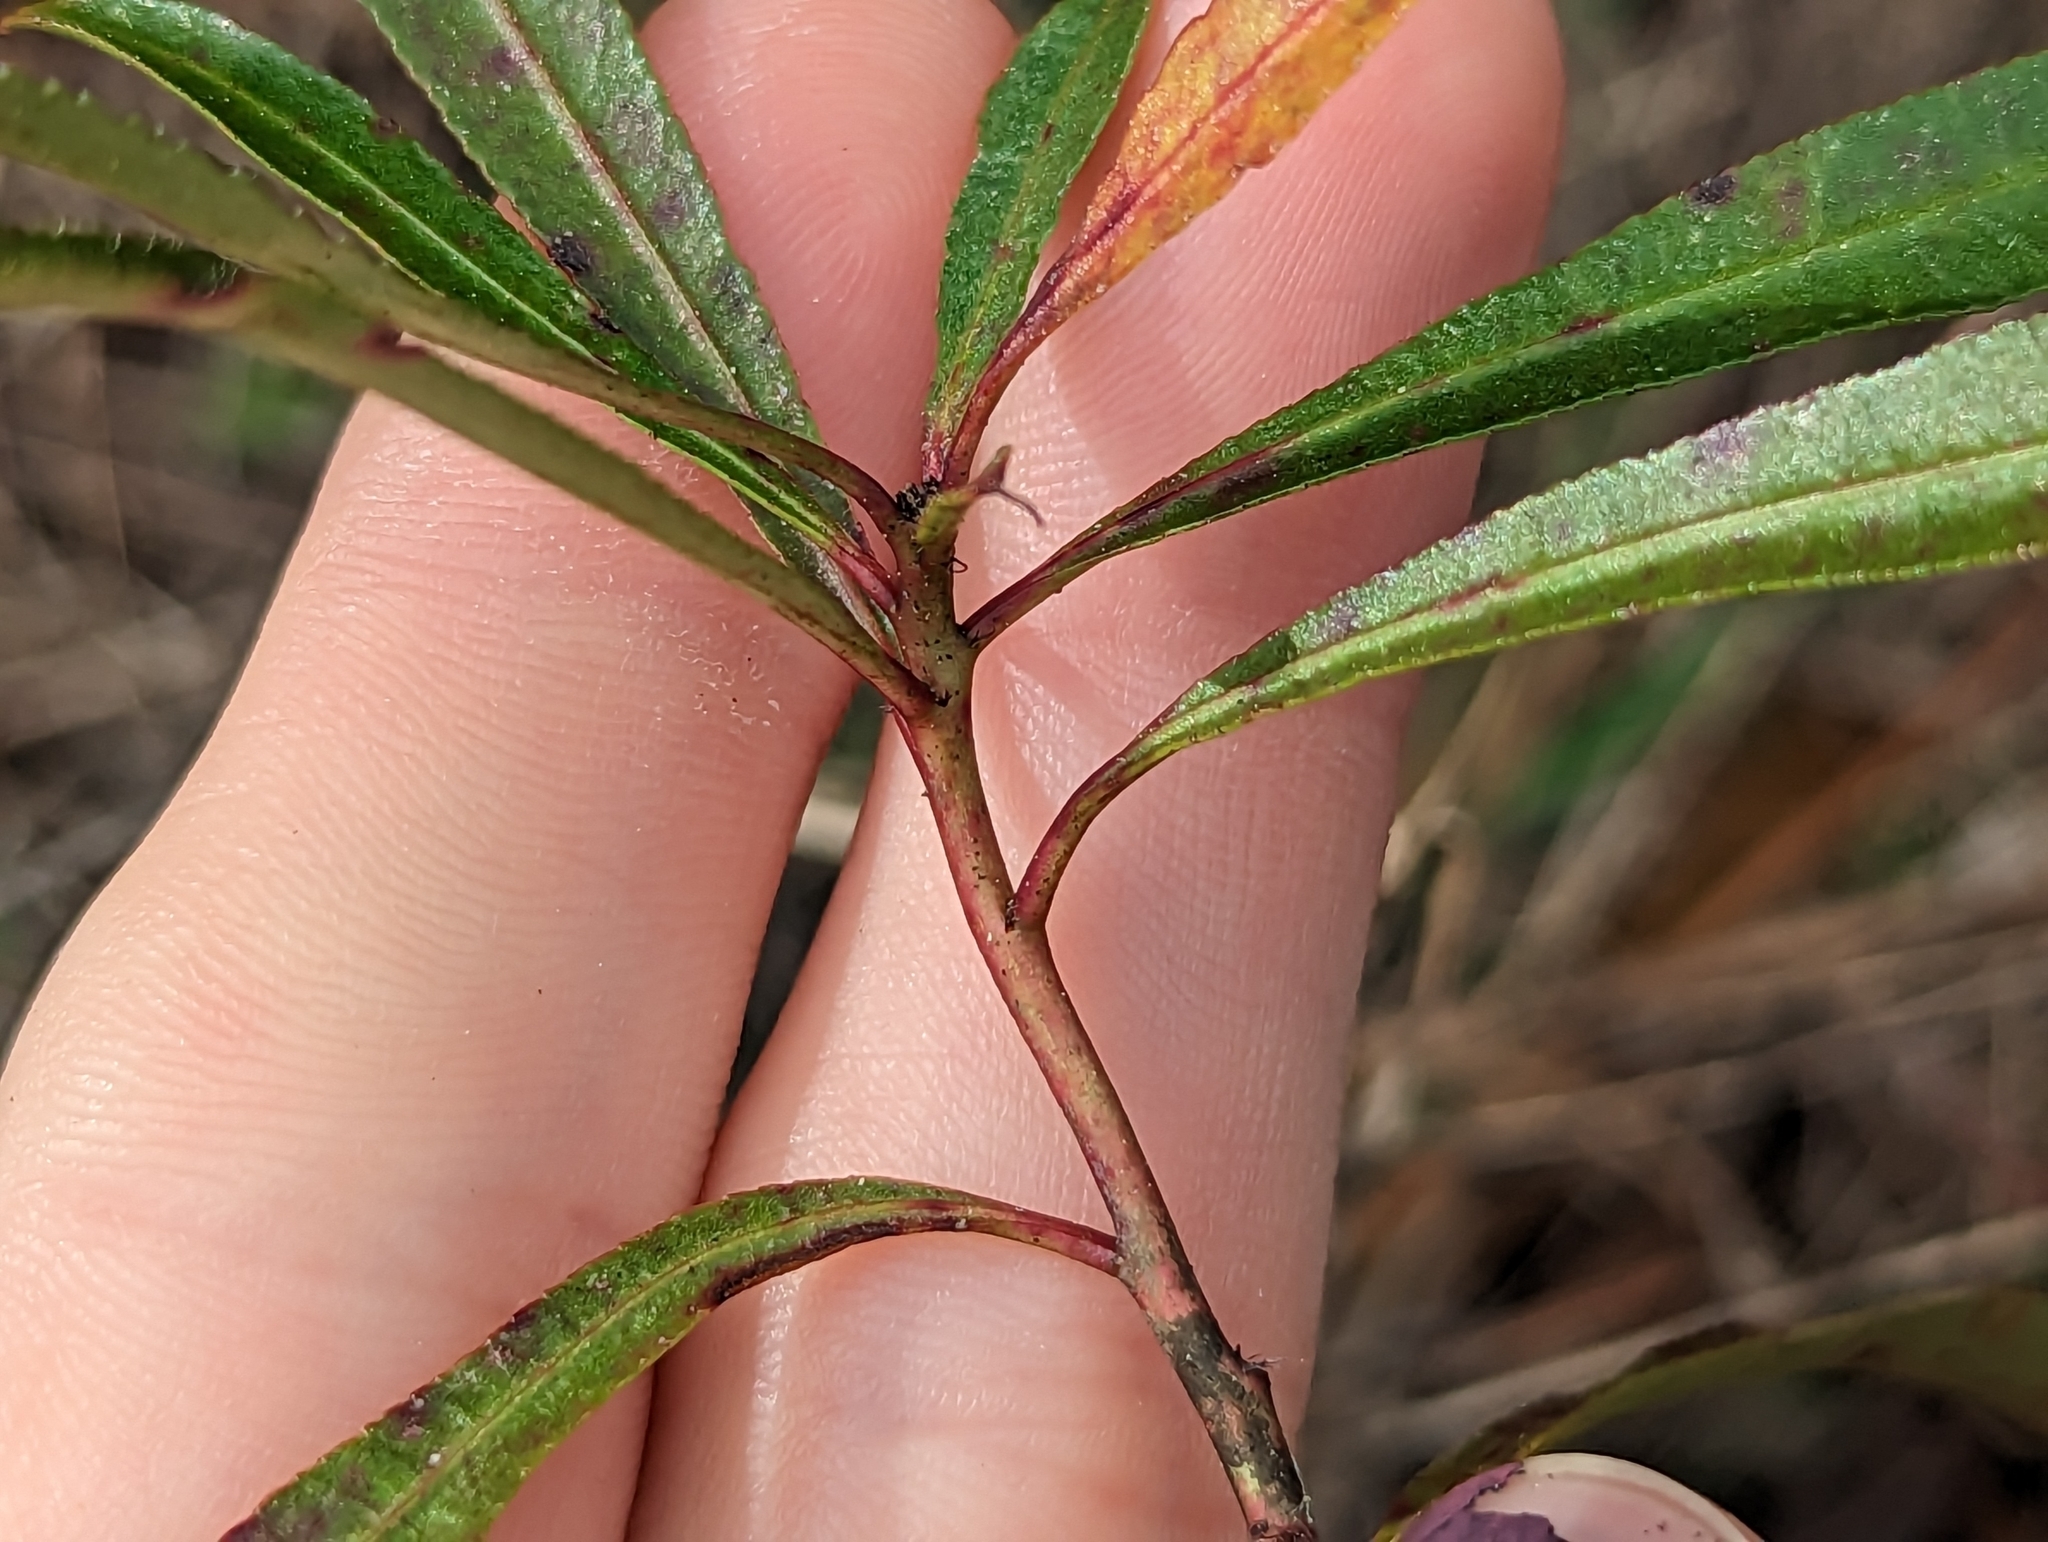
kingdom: Plantae
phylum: Tracheophyta
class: Magnoliopsida
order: Malpighiales
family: Euphorbiaceae
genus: Stillingia
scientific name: Stillingia sylvatica
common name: Queen's-delight
